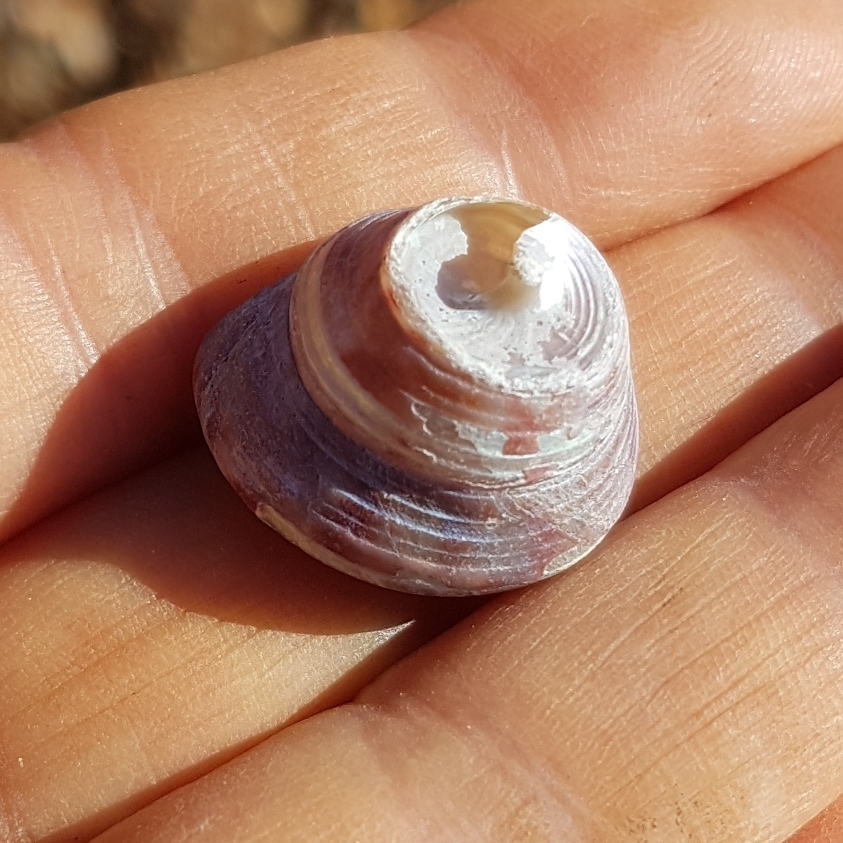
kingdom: Animalia
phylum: Mollusca
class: Gastropoda
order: Trochida
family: Calliostomatidae
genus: Calliostoma
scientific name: Calliostoma zizyphinum
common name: Painted top shell
